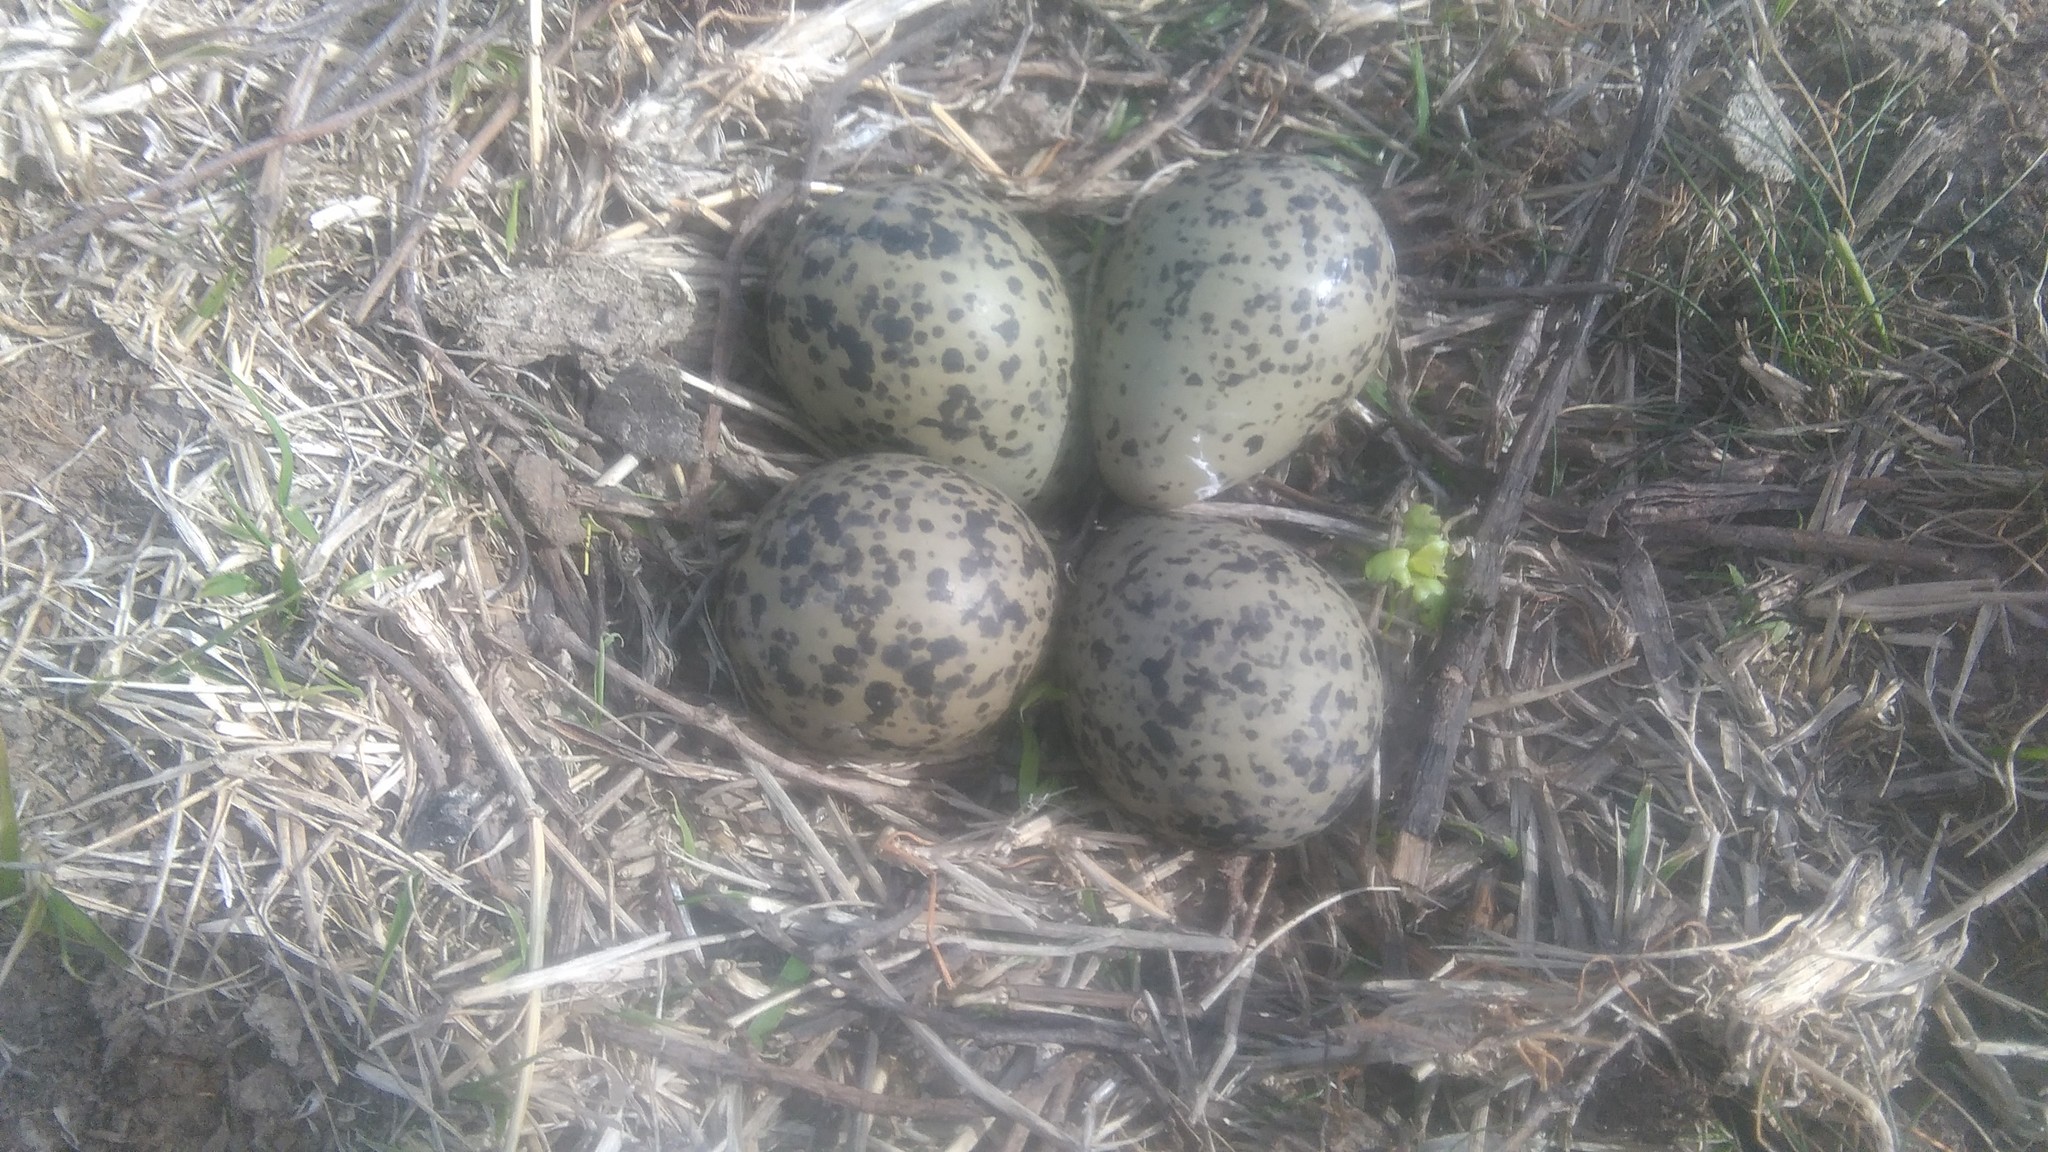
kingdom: Animalia
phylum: Chordata
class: Aves
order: Charadriiformes
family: Charadriidae
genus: Vanellus
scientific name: Vanellus chilensis
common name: Southern lapwing
